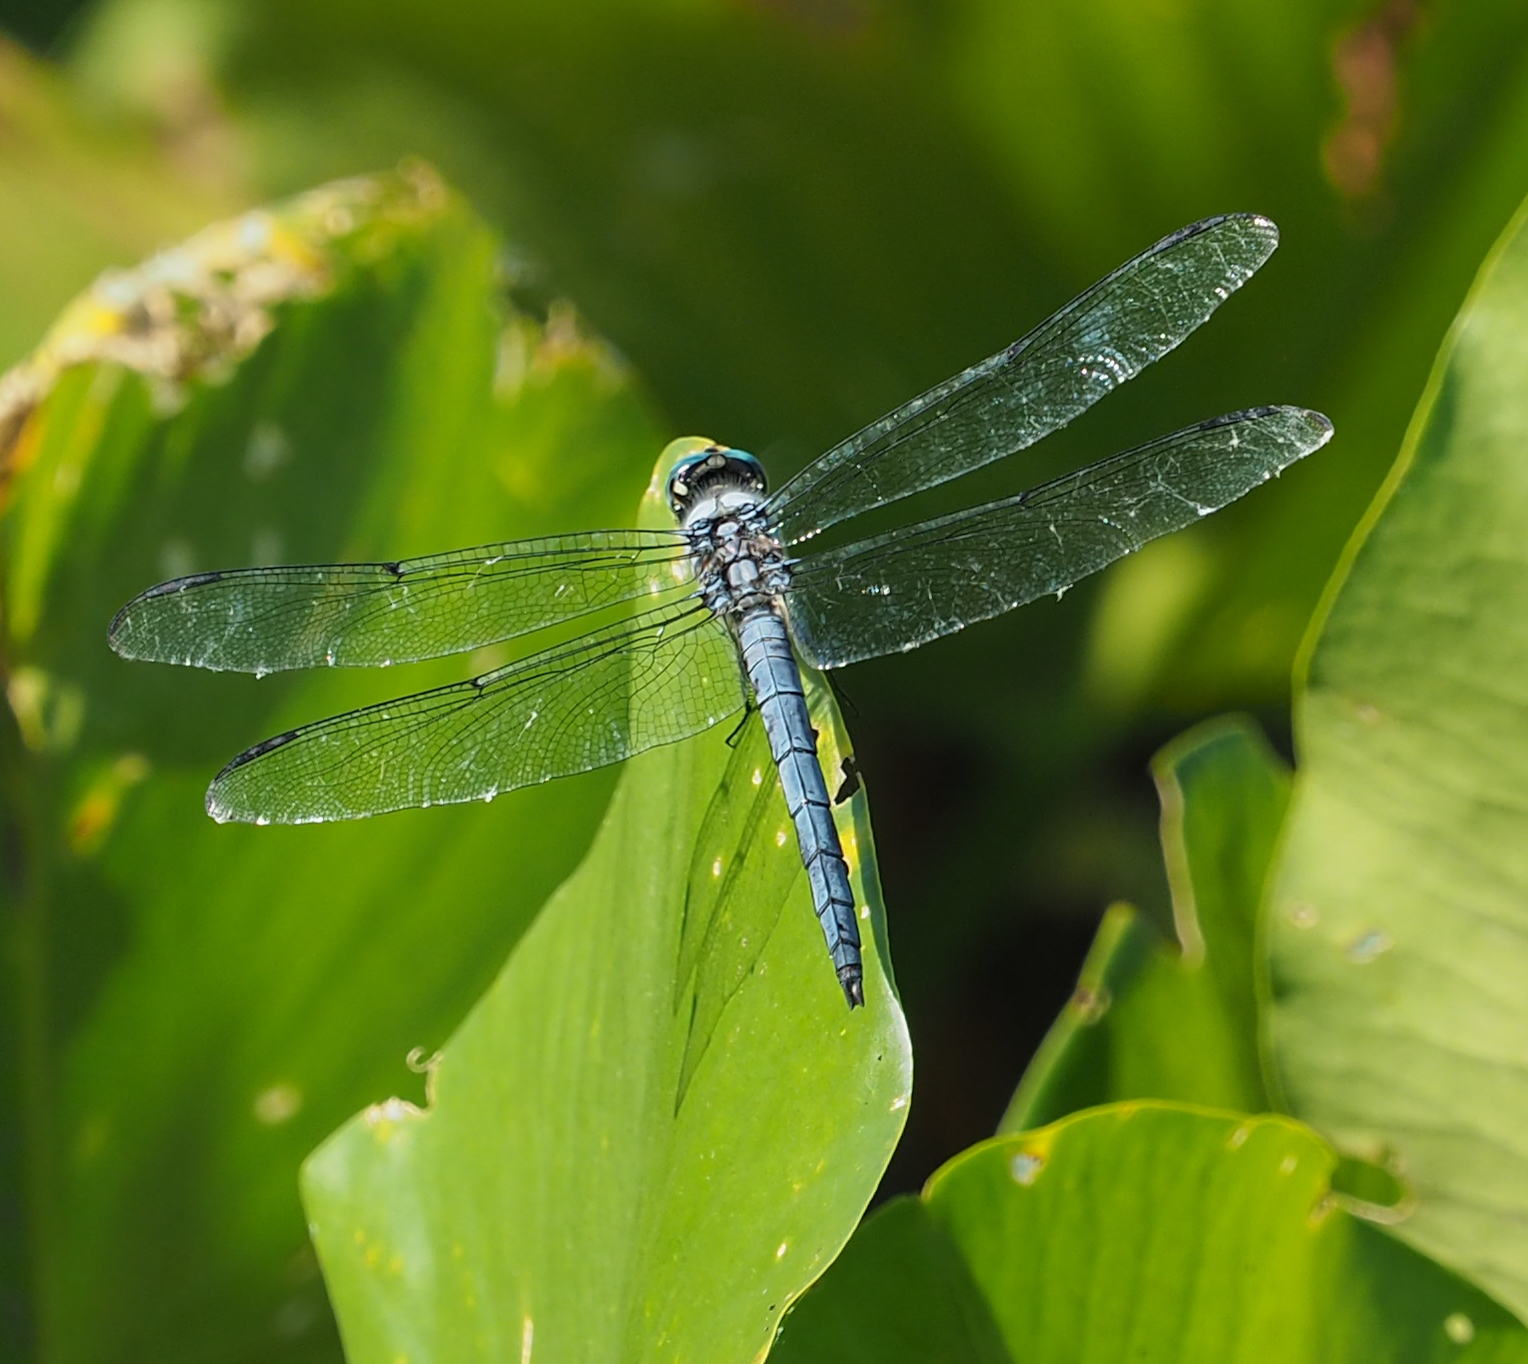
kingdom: Animalia
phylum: Arthropoda
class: Insecta
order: Odonata
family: Libellulidae
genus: Libellula
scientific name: Libellula vibrans
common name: Great blue skimmer
